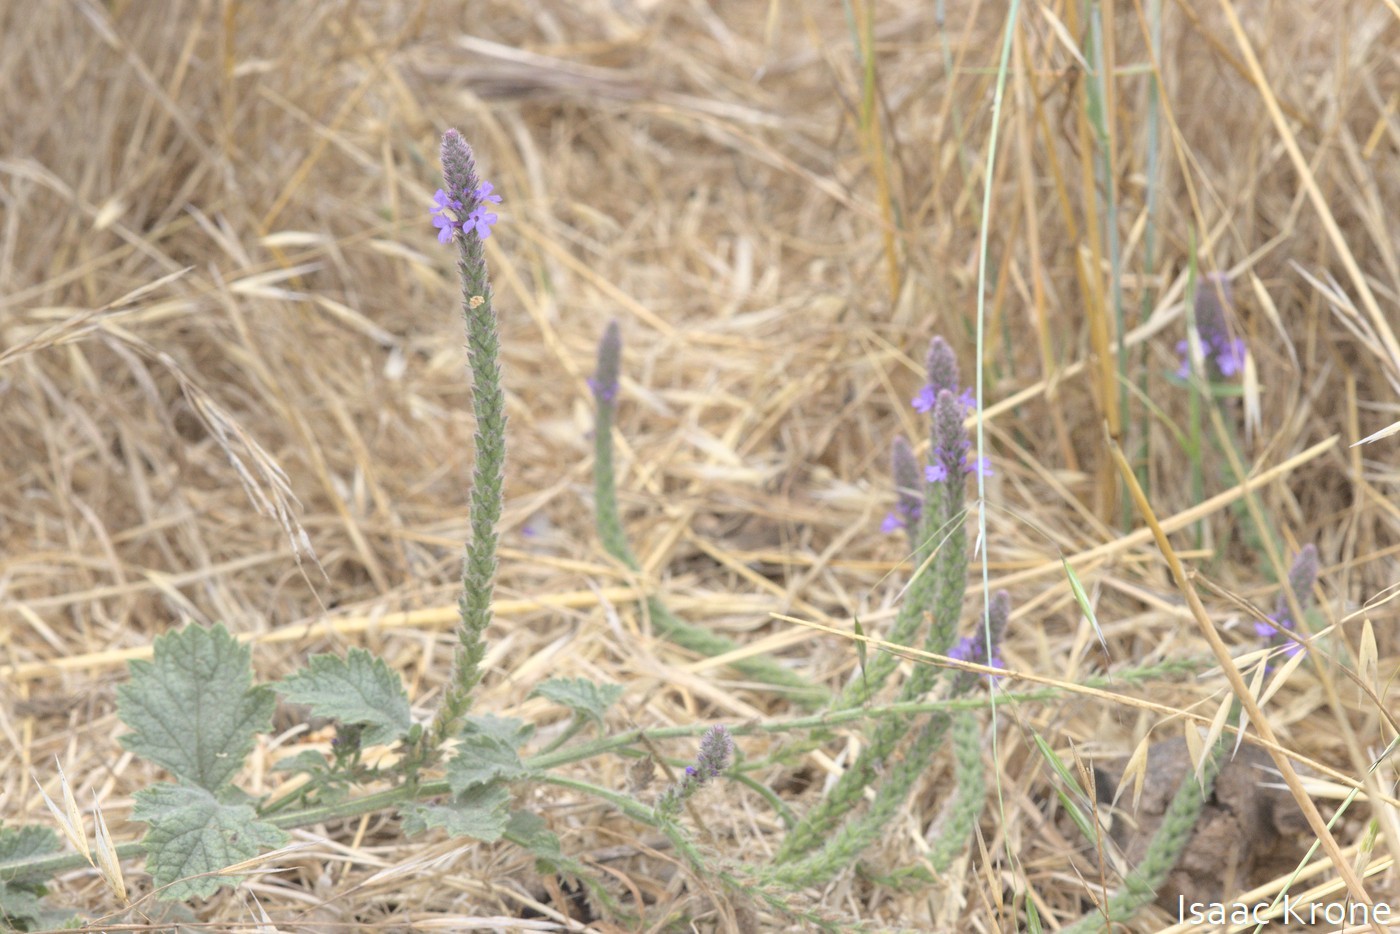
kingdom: Plantae
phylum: Tracheophyta
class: Magnoliopsida
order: Lamiales
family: Verbenaceae
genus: Verbena
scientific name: Verbena lasiostachys
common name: Vervain
